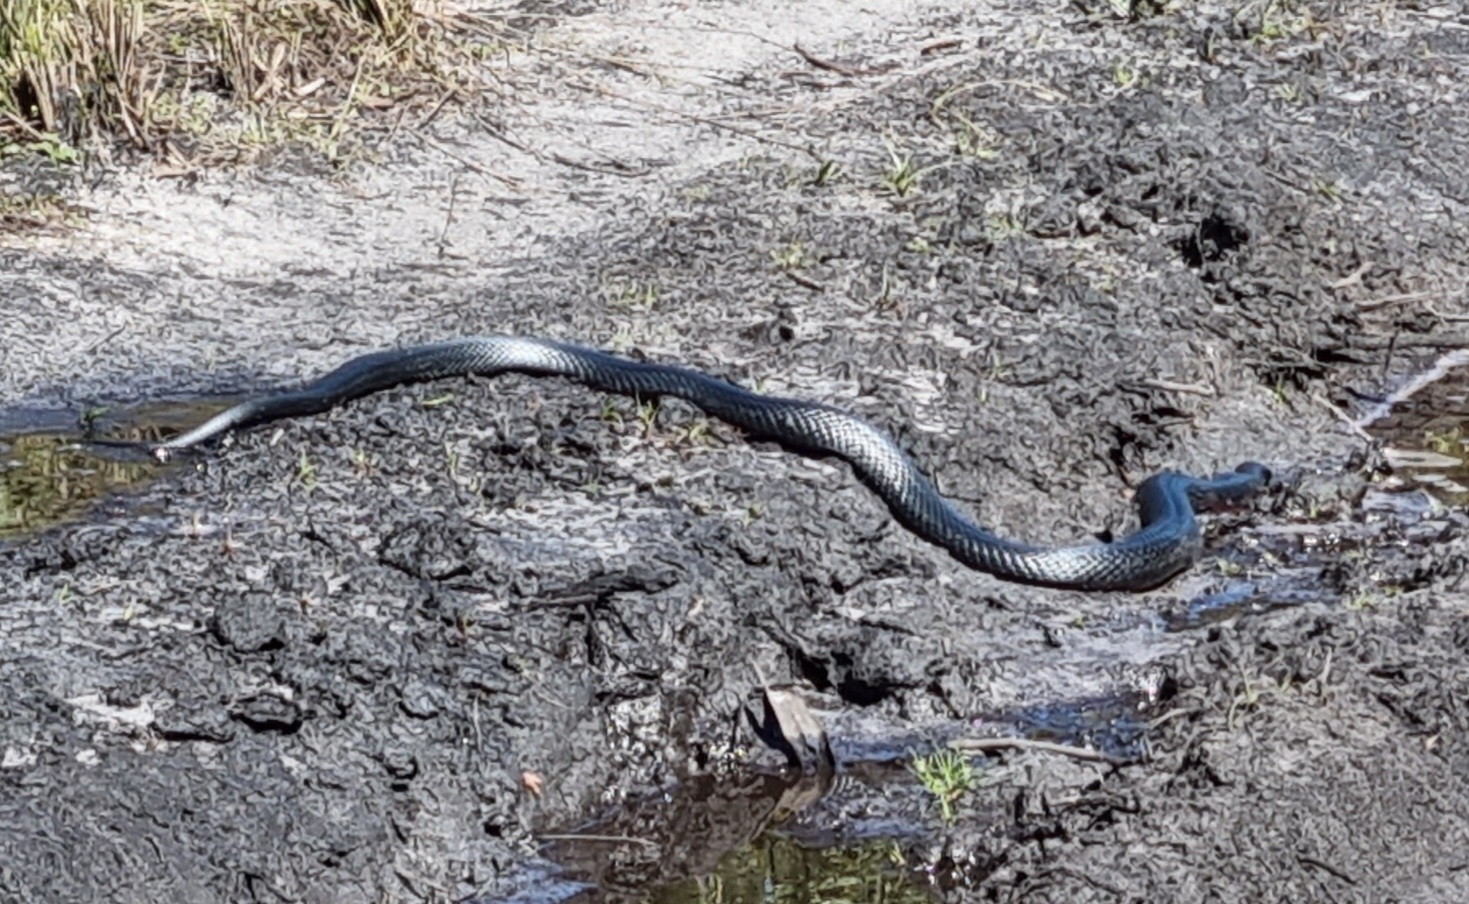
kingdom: Animalia
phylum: Chordata
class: Squamata
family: Elapidae
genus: Pseudechis
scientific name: Pseudechis porphyriacus
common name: Australian black snake
